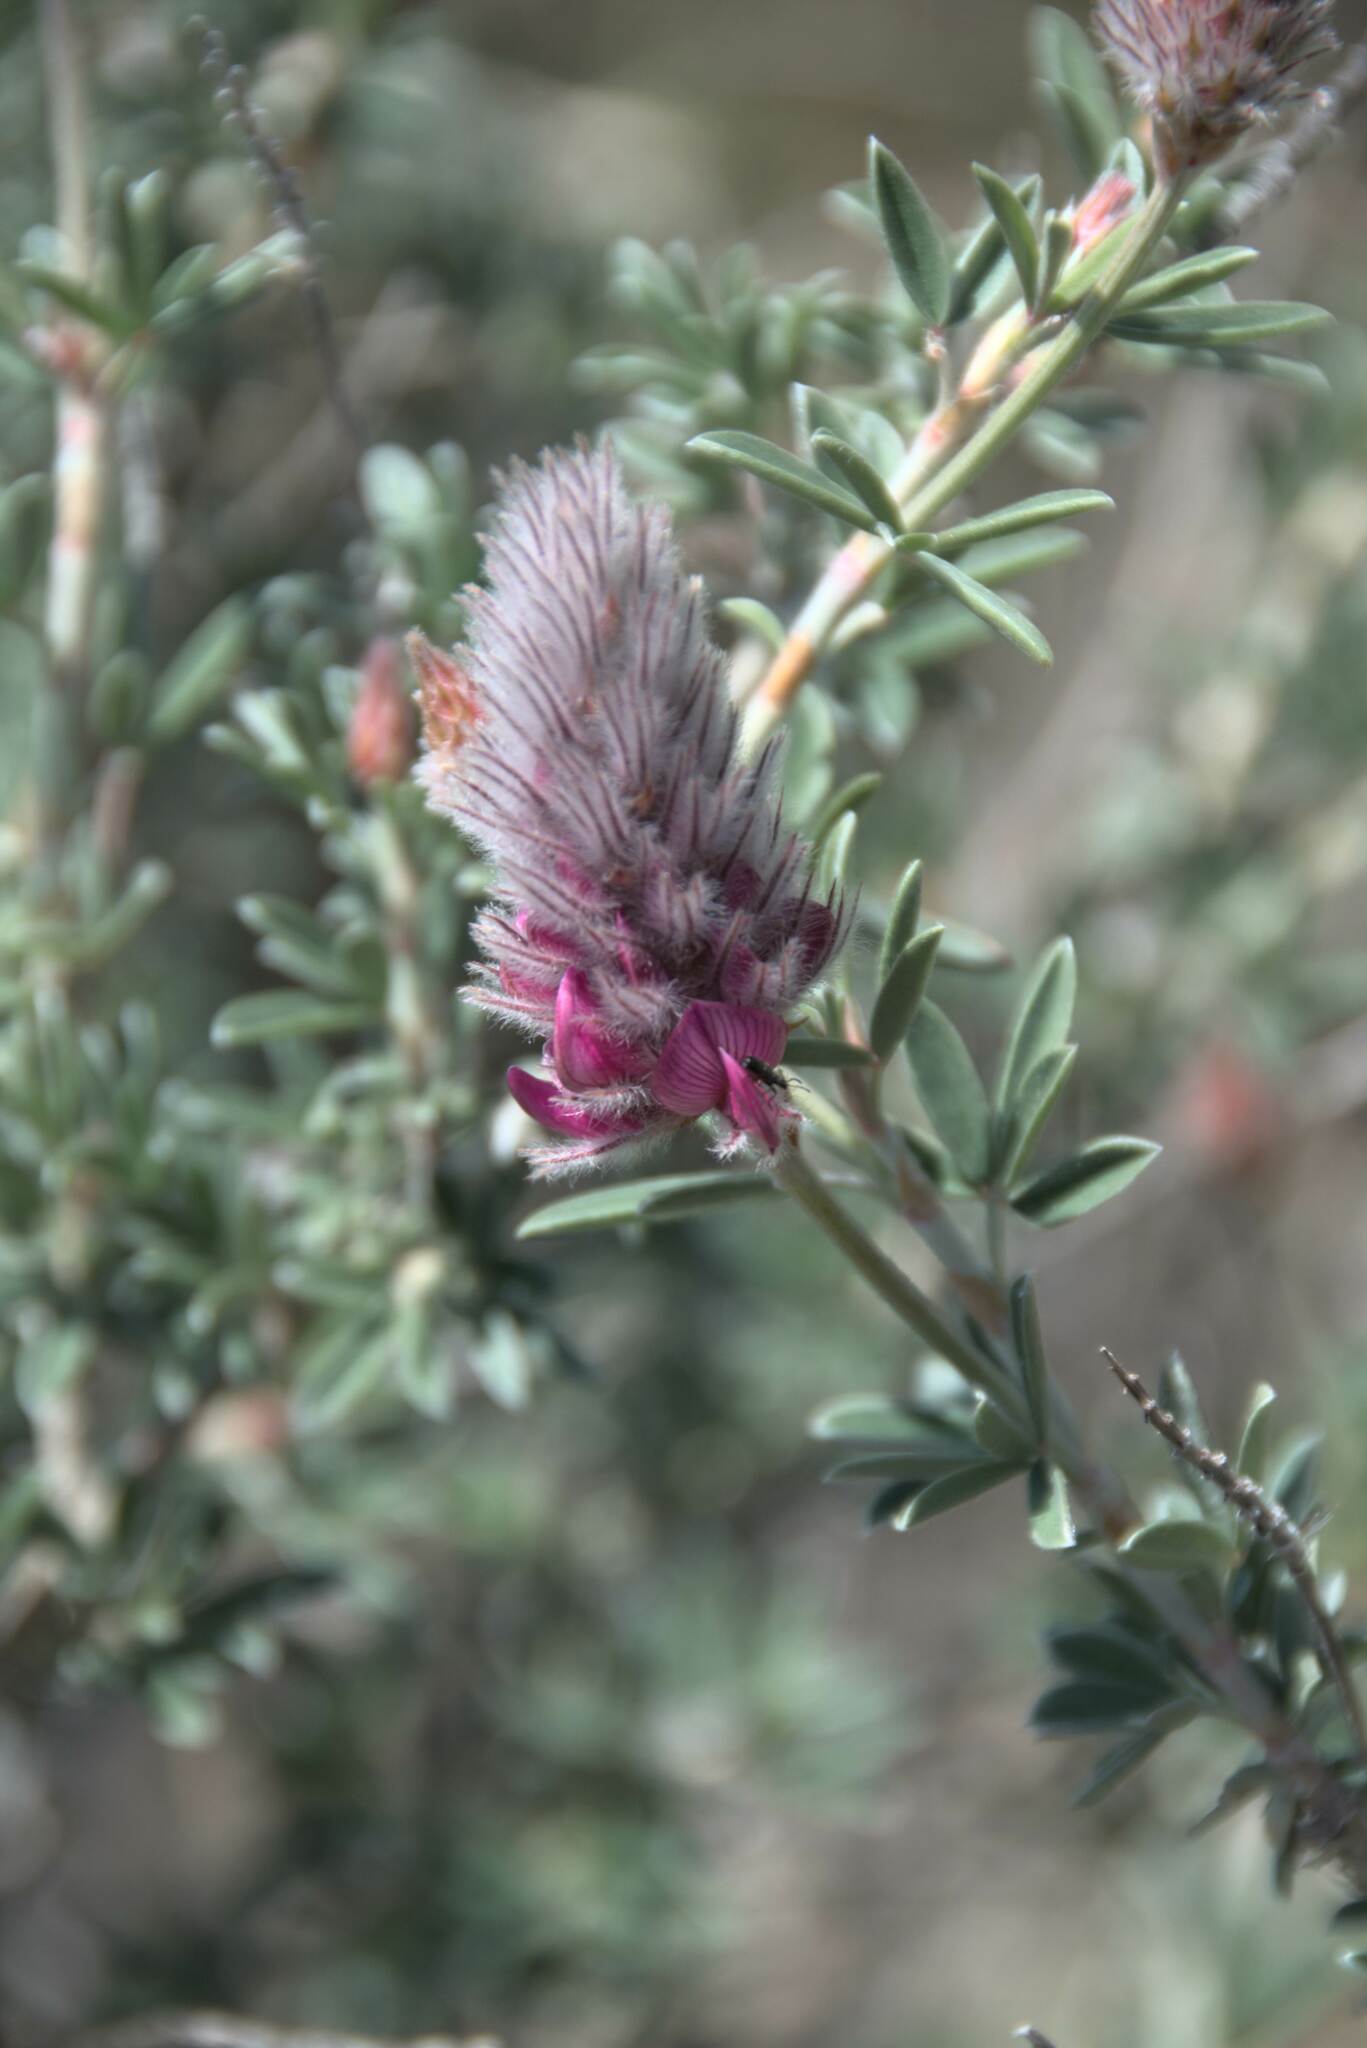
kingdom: Plantae
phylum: Tracheophyta
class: Magnoliopsida
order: Fabales
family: Fabaceae
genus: Ebenus
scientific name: Ebenus cretica
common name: Cretan silver bush
